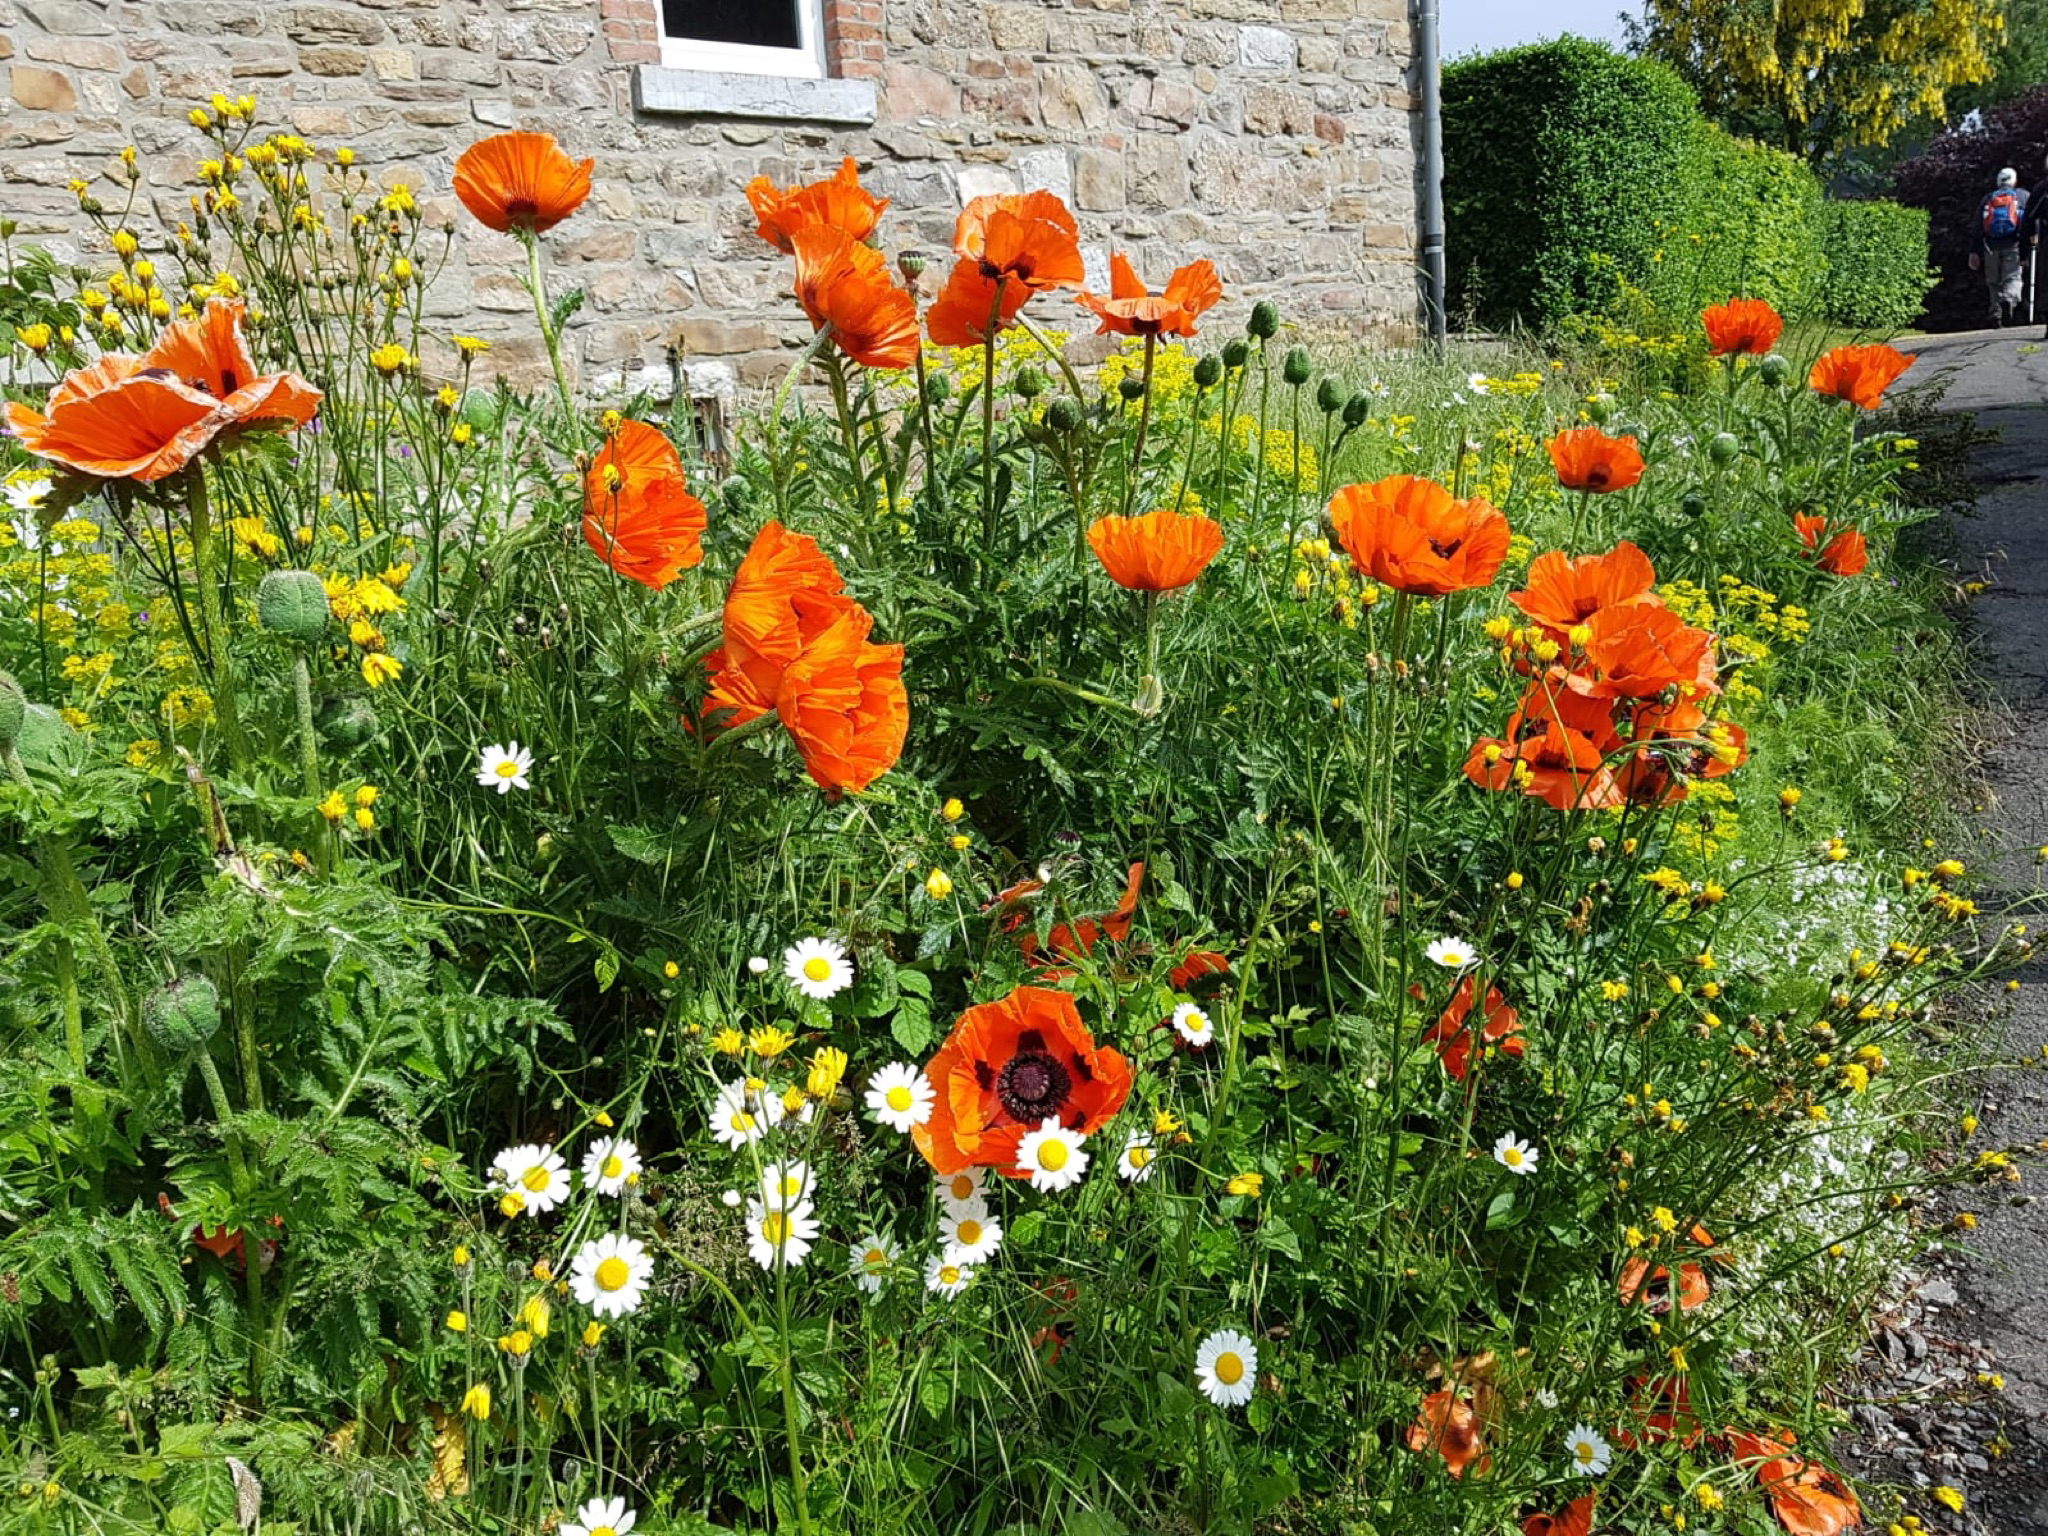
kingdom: Plantae
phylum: Tracheophyta
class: Magnoliopsida
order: Ranunculales
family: Papaveraceae
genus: Papaver
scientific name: Papaver orientale
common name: Oriental poppy
